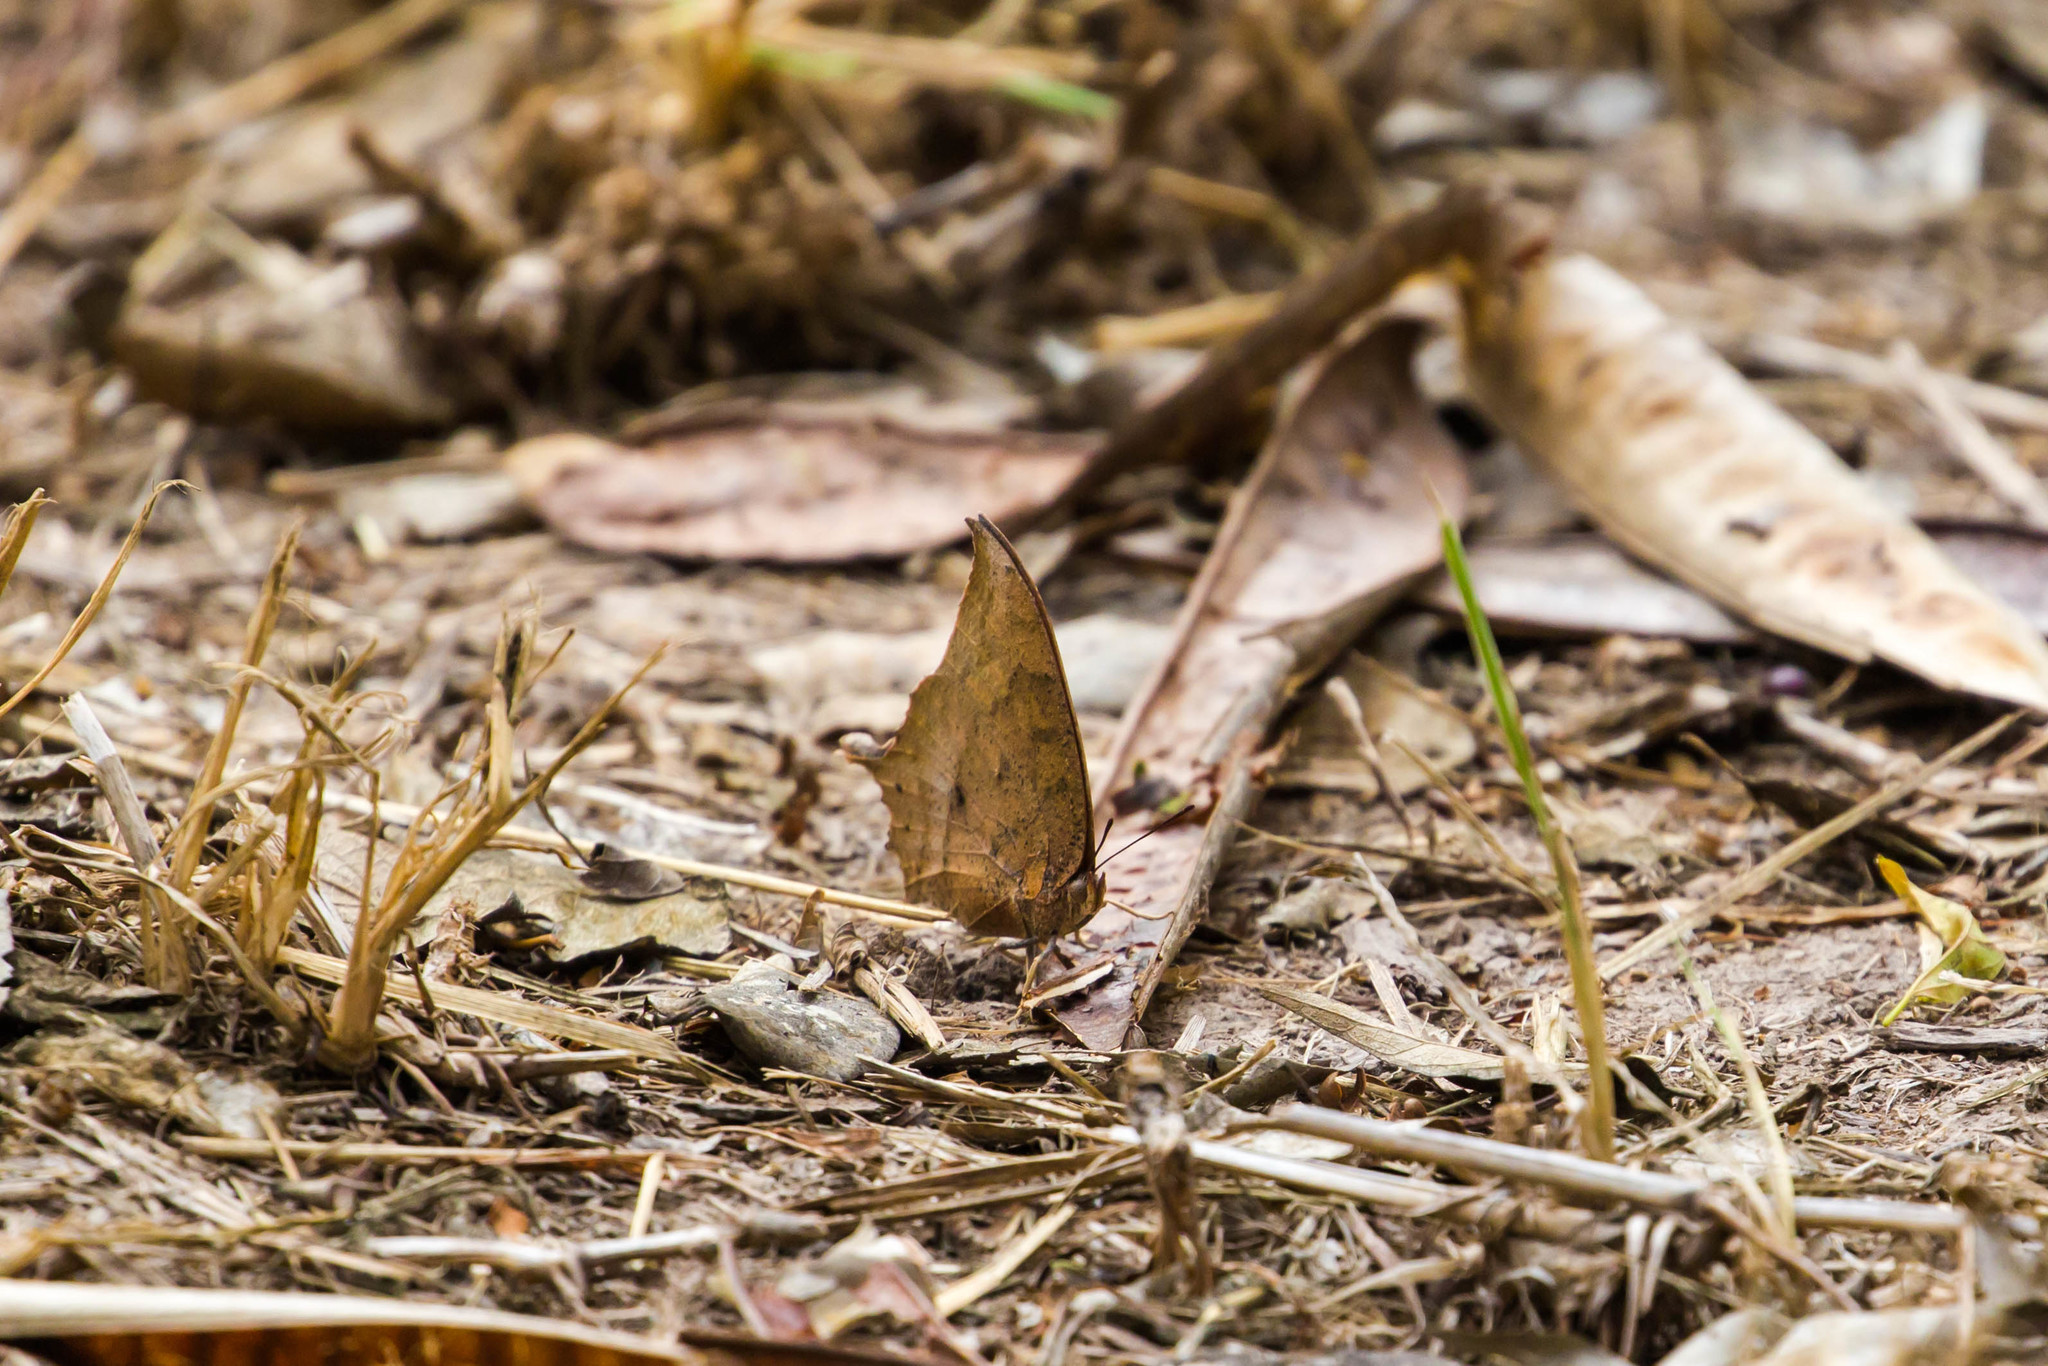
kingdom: Animalia
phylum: Arthropoda
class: Insecta
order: Lepidoptera
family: Nymphalidae
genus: Anaea
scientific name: Anaea aidea
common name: Tropical leafwing
